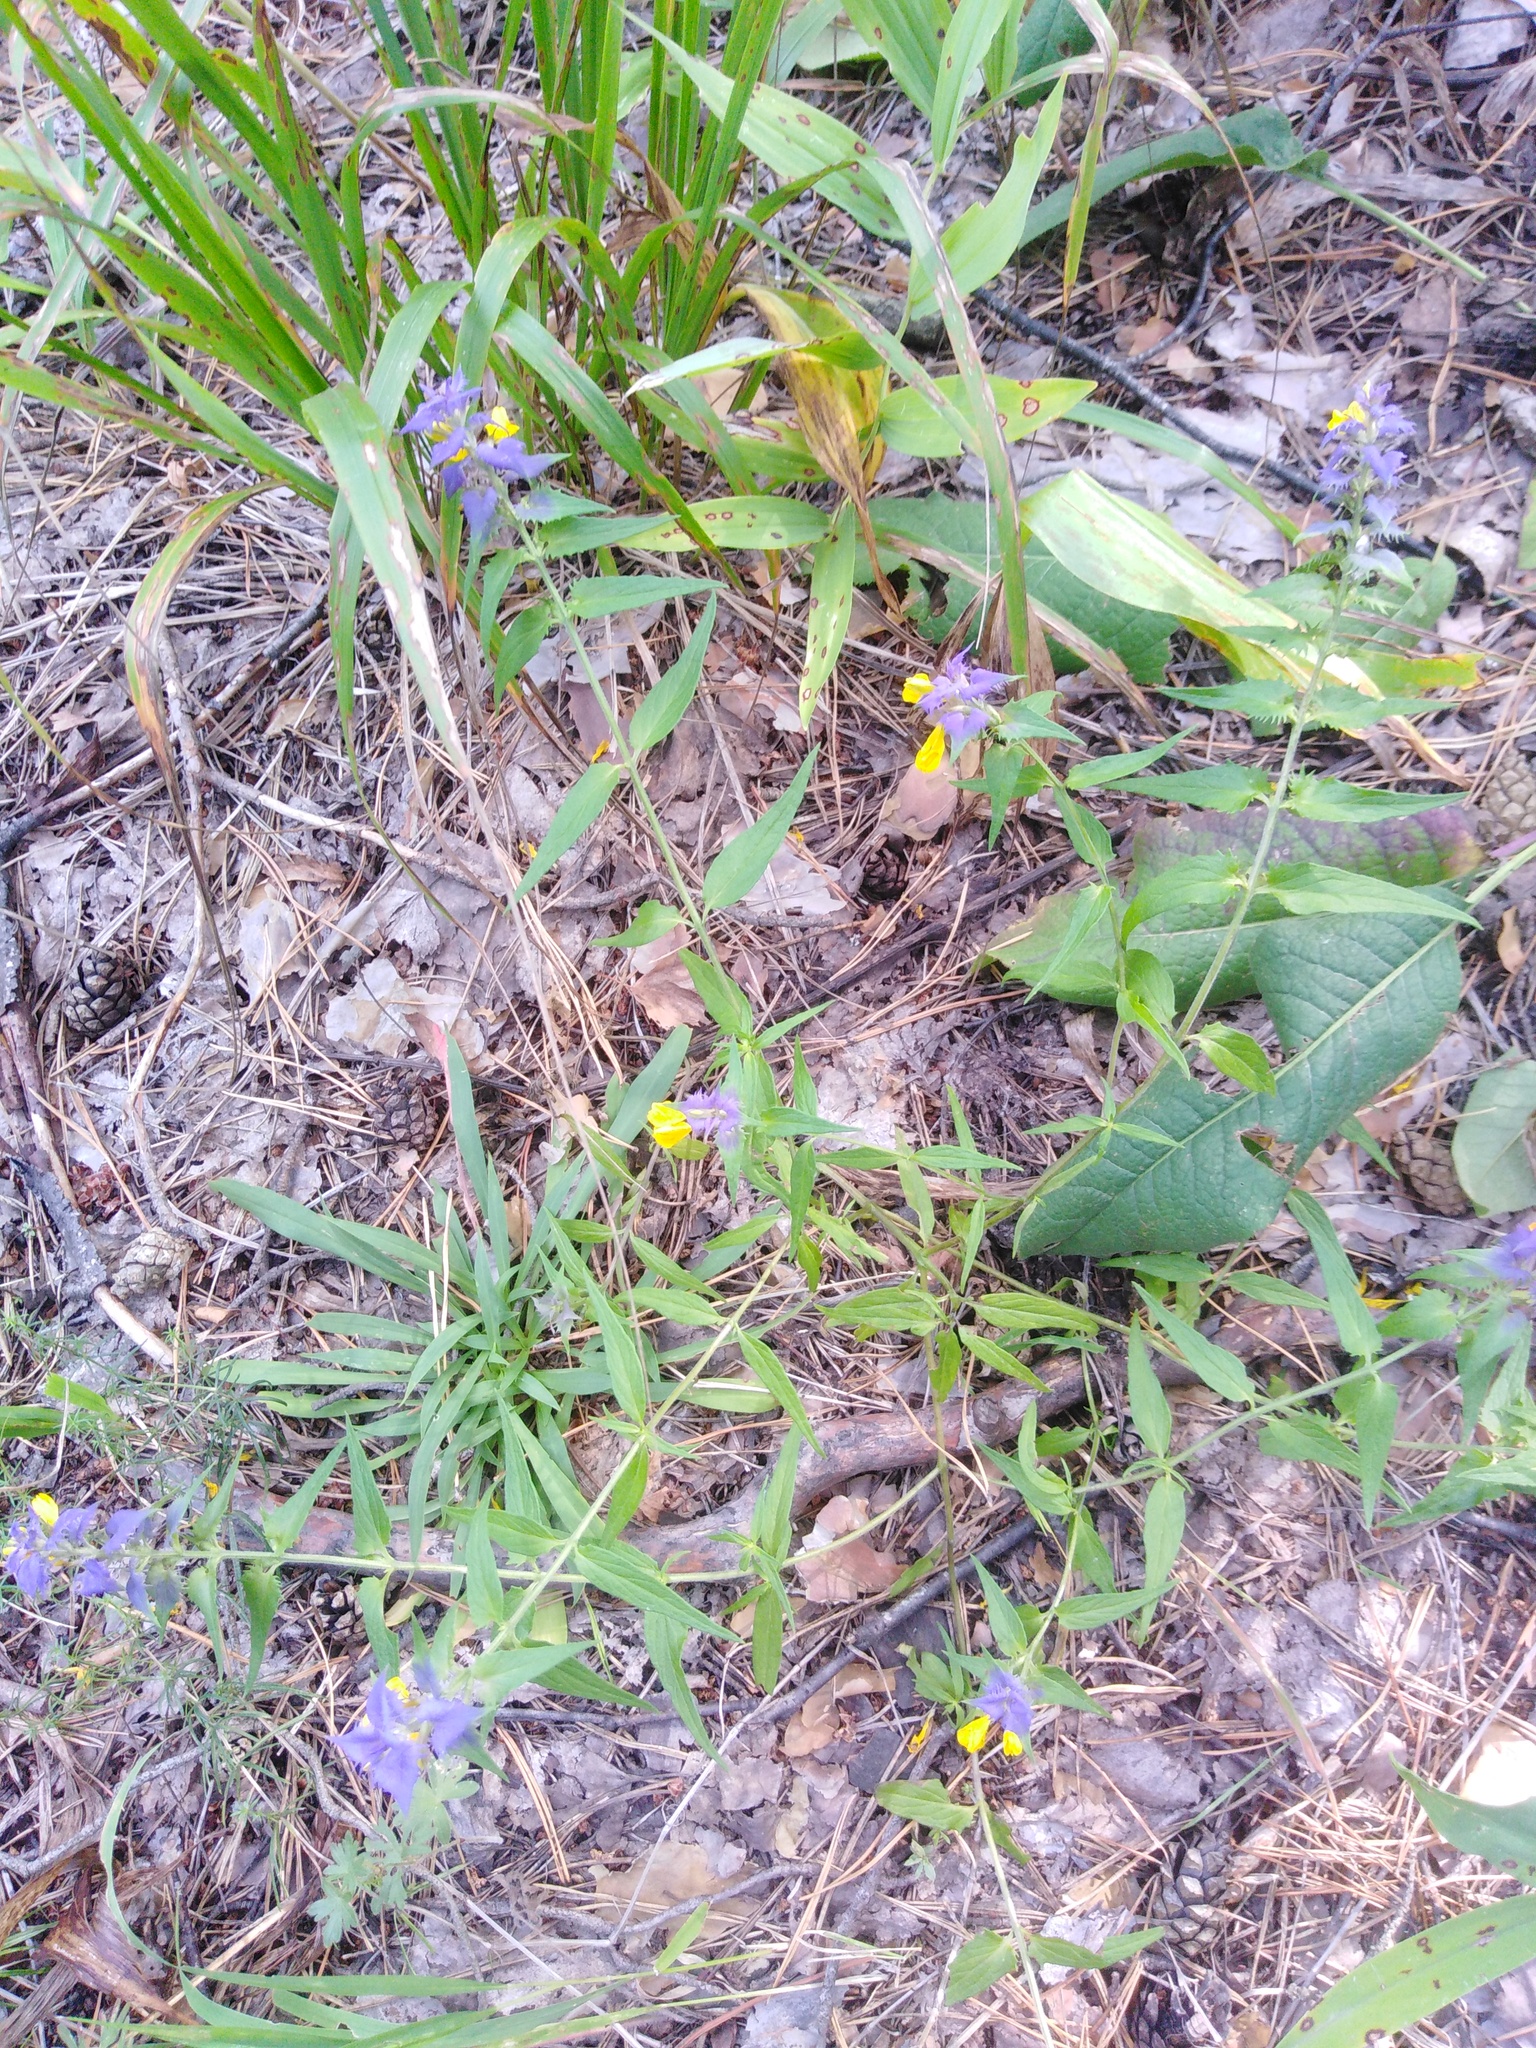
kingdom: Plantae
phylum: Tracheophyta
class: Magnoliopsida
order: Lamiales
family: Orobanchaceae
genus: Melampyrum
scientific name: Melampyrum nemorosum
